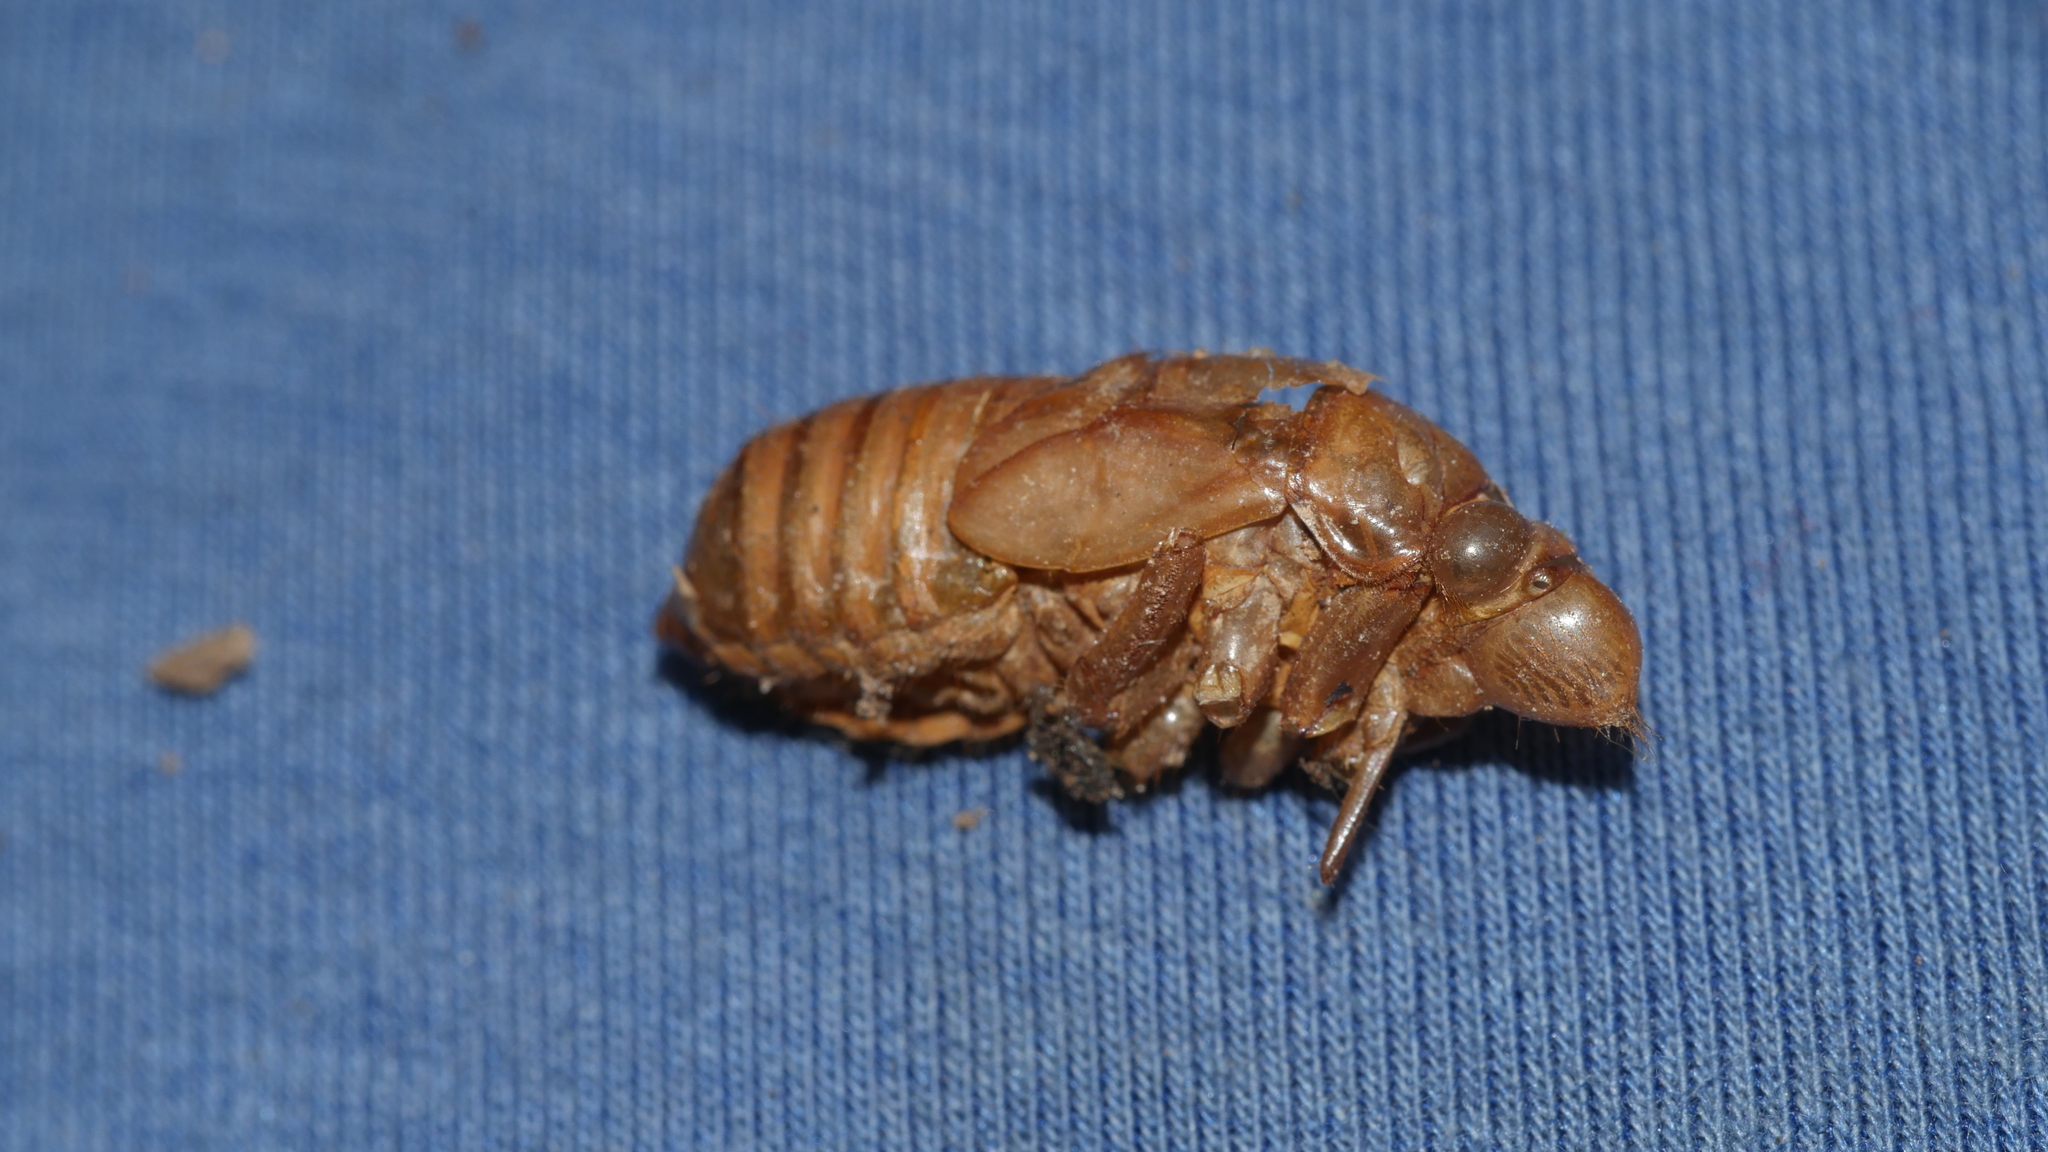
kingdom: Animalia
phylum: Arthropoda
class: Insecta
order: Hemiptera
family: Cicadidae
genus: Magicicada
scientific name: Magicicada
